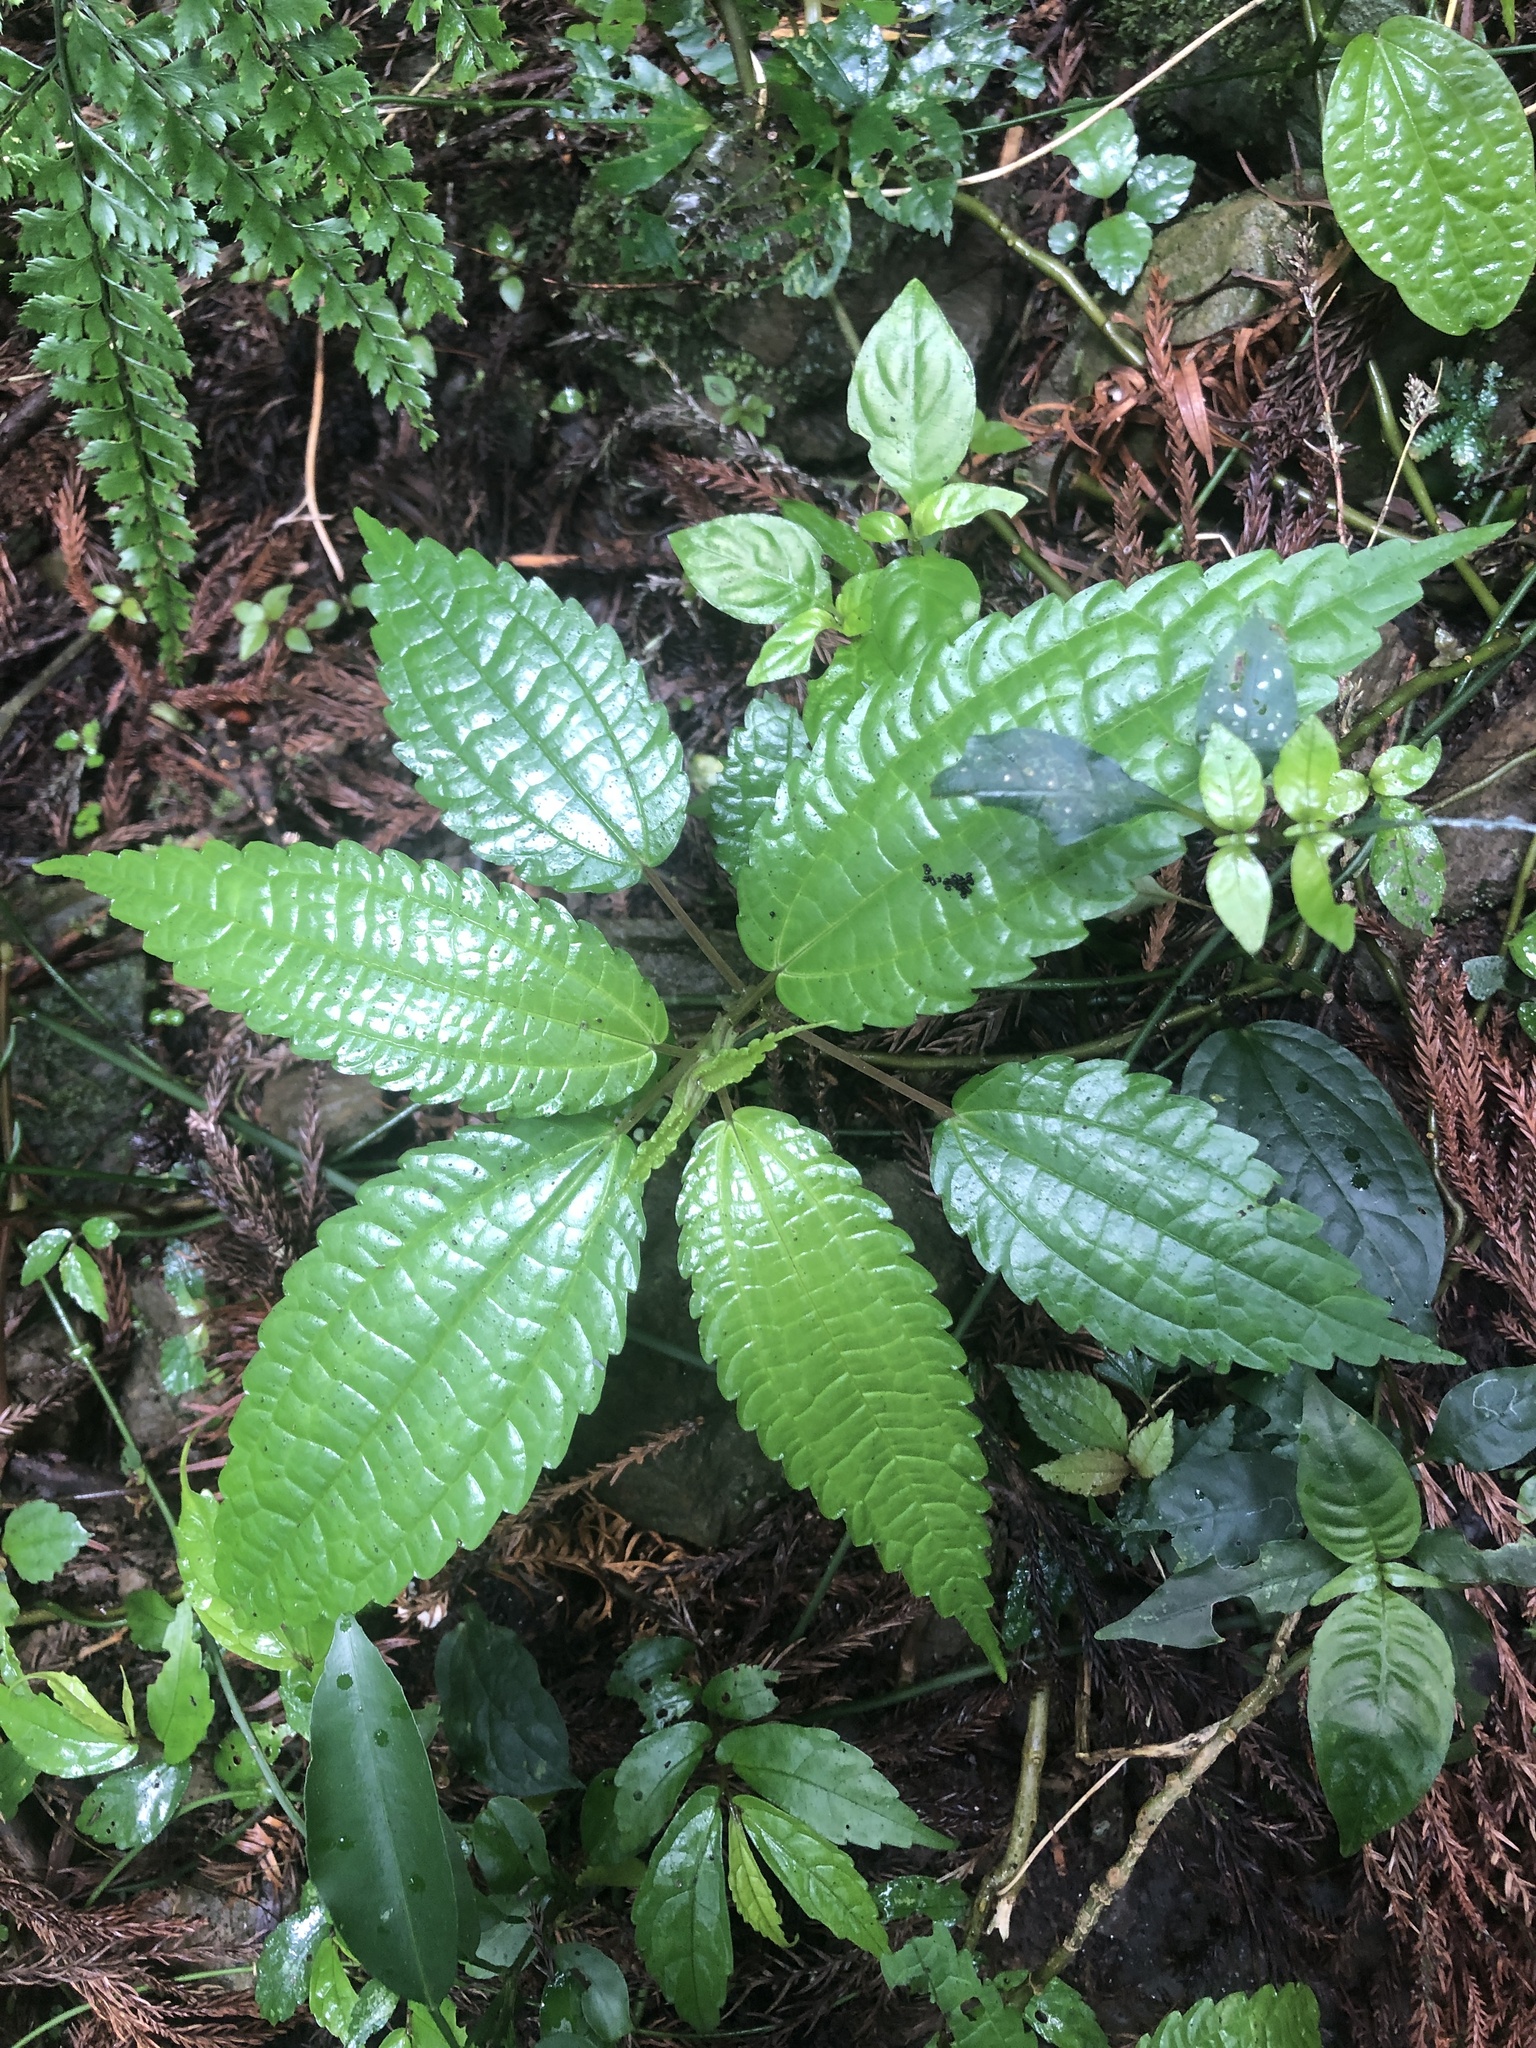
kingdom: Plantae
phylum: Tracheophyta
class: Magnoliopsida
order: Rosales
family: Urticaceae
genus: Pilea
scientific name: Pilea angulata
